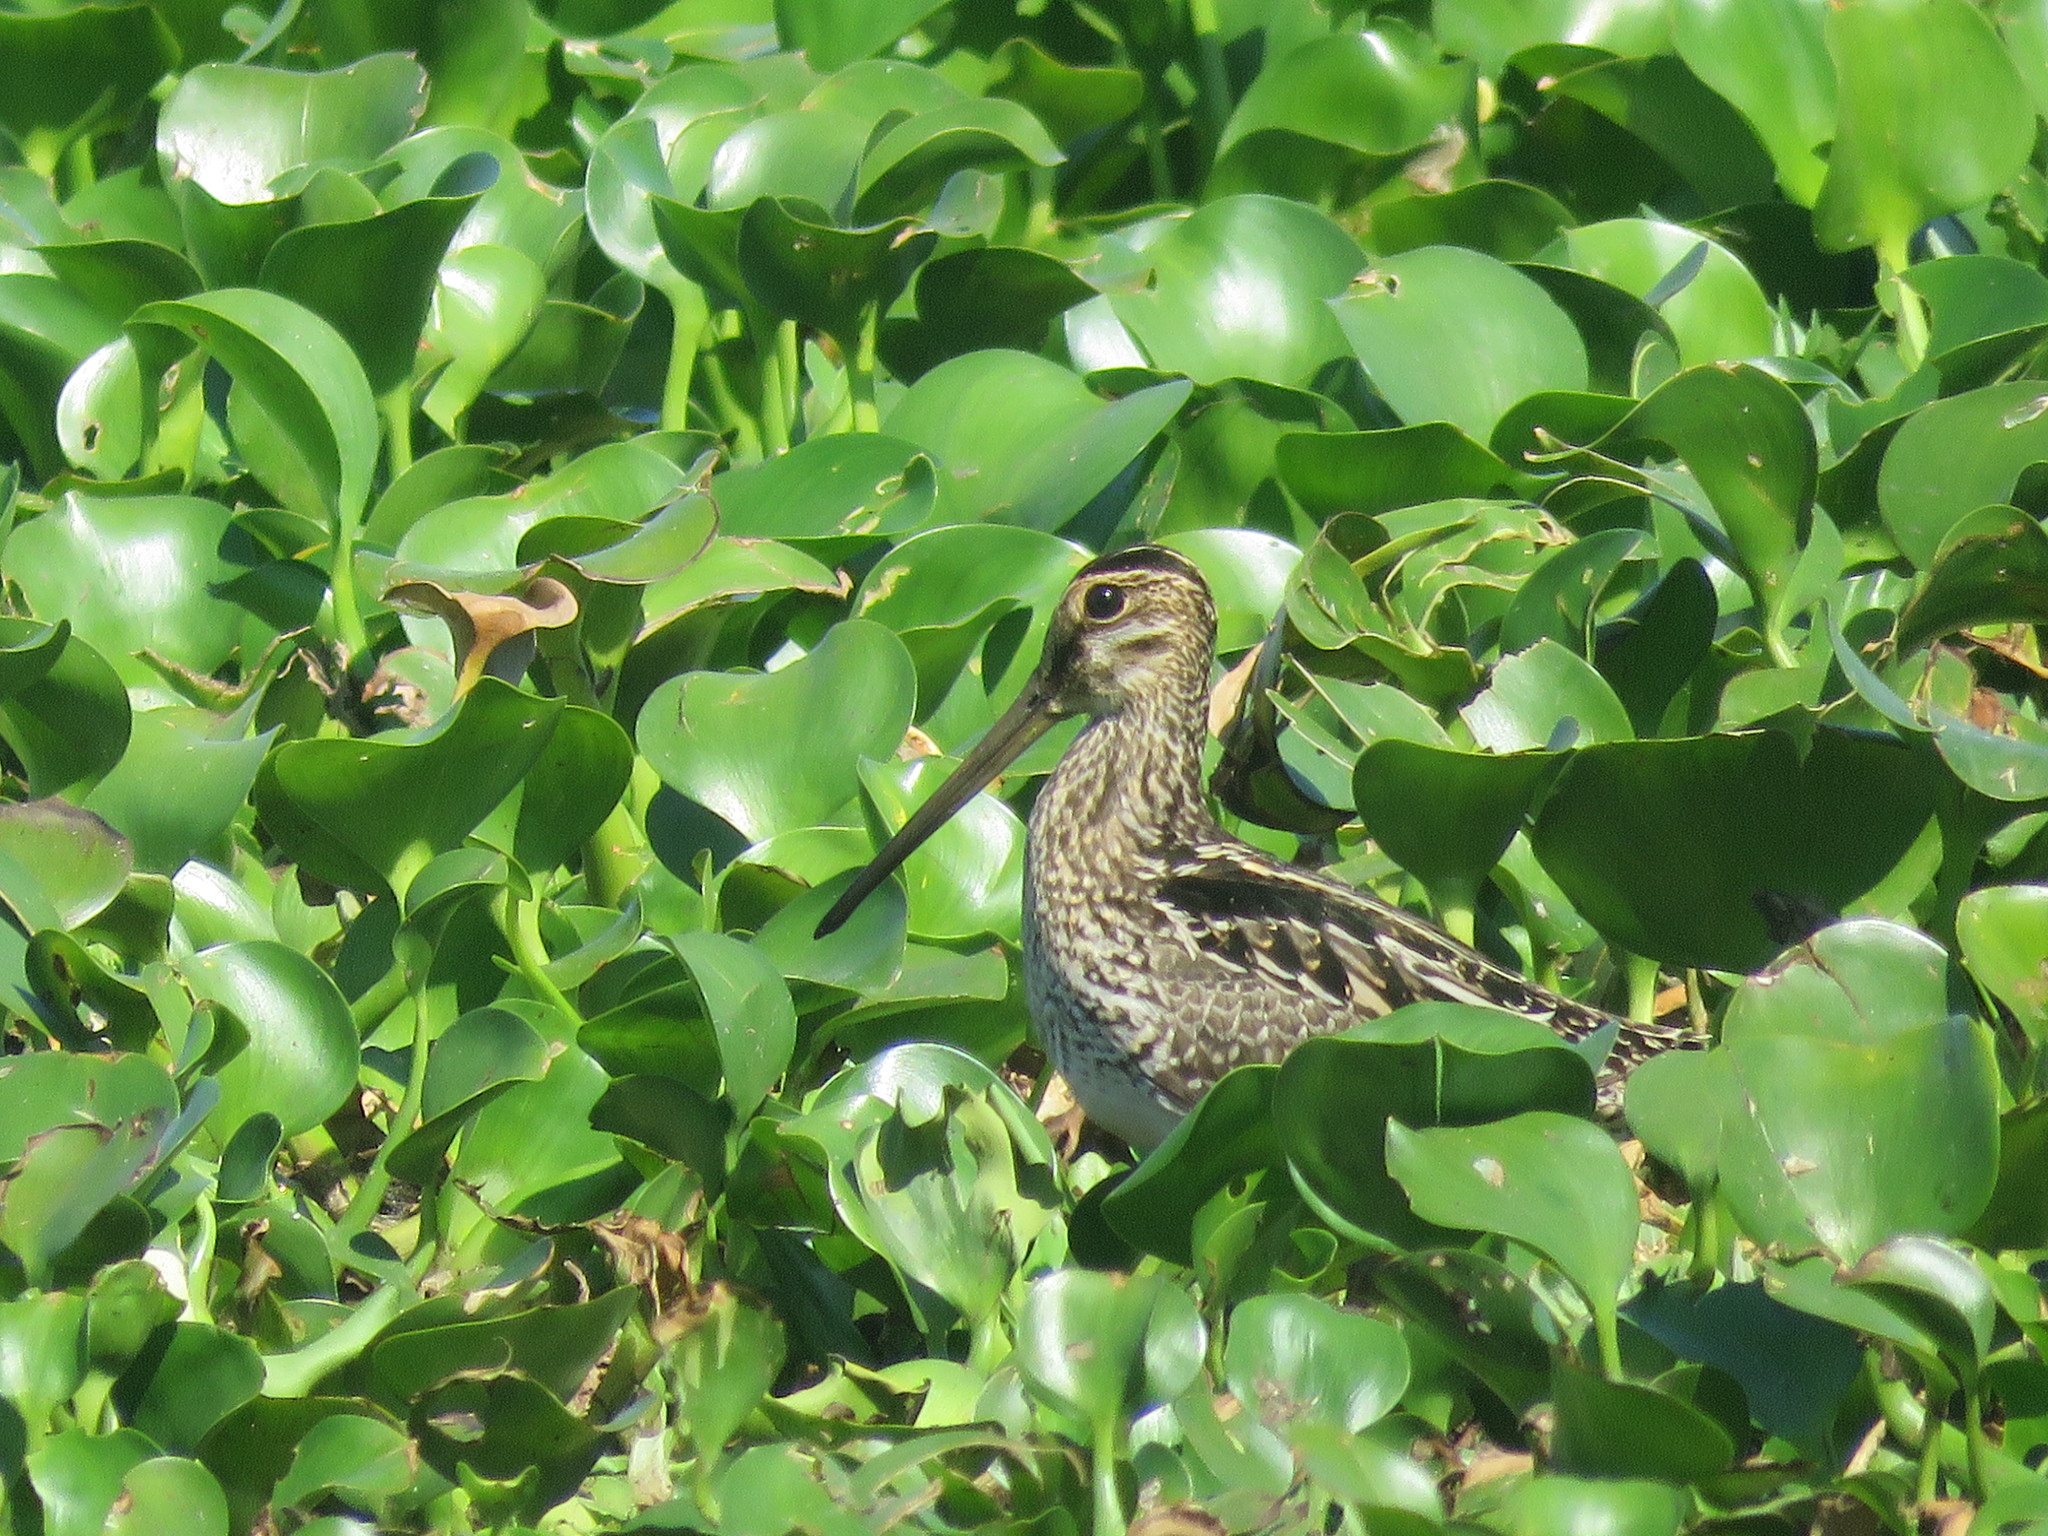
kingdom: Animalia
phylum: Chordata
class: Aves
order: Charadriiformes
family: Scolopacidae
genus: Gallinago
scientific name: Gallinago paraguaiae
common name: South american snipe
